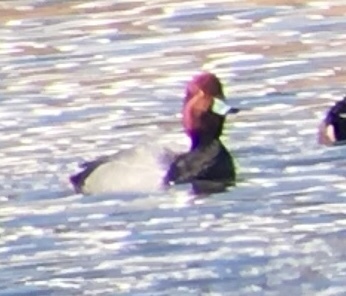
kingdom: Animalia
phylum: Chordata
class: Aves
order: Anseriformes
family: Anatidae
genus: Aythya
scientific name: Aythya americana
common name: Redhead
